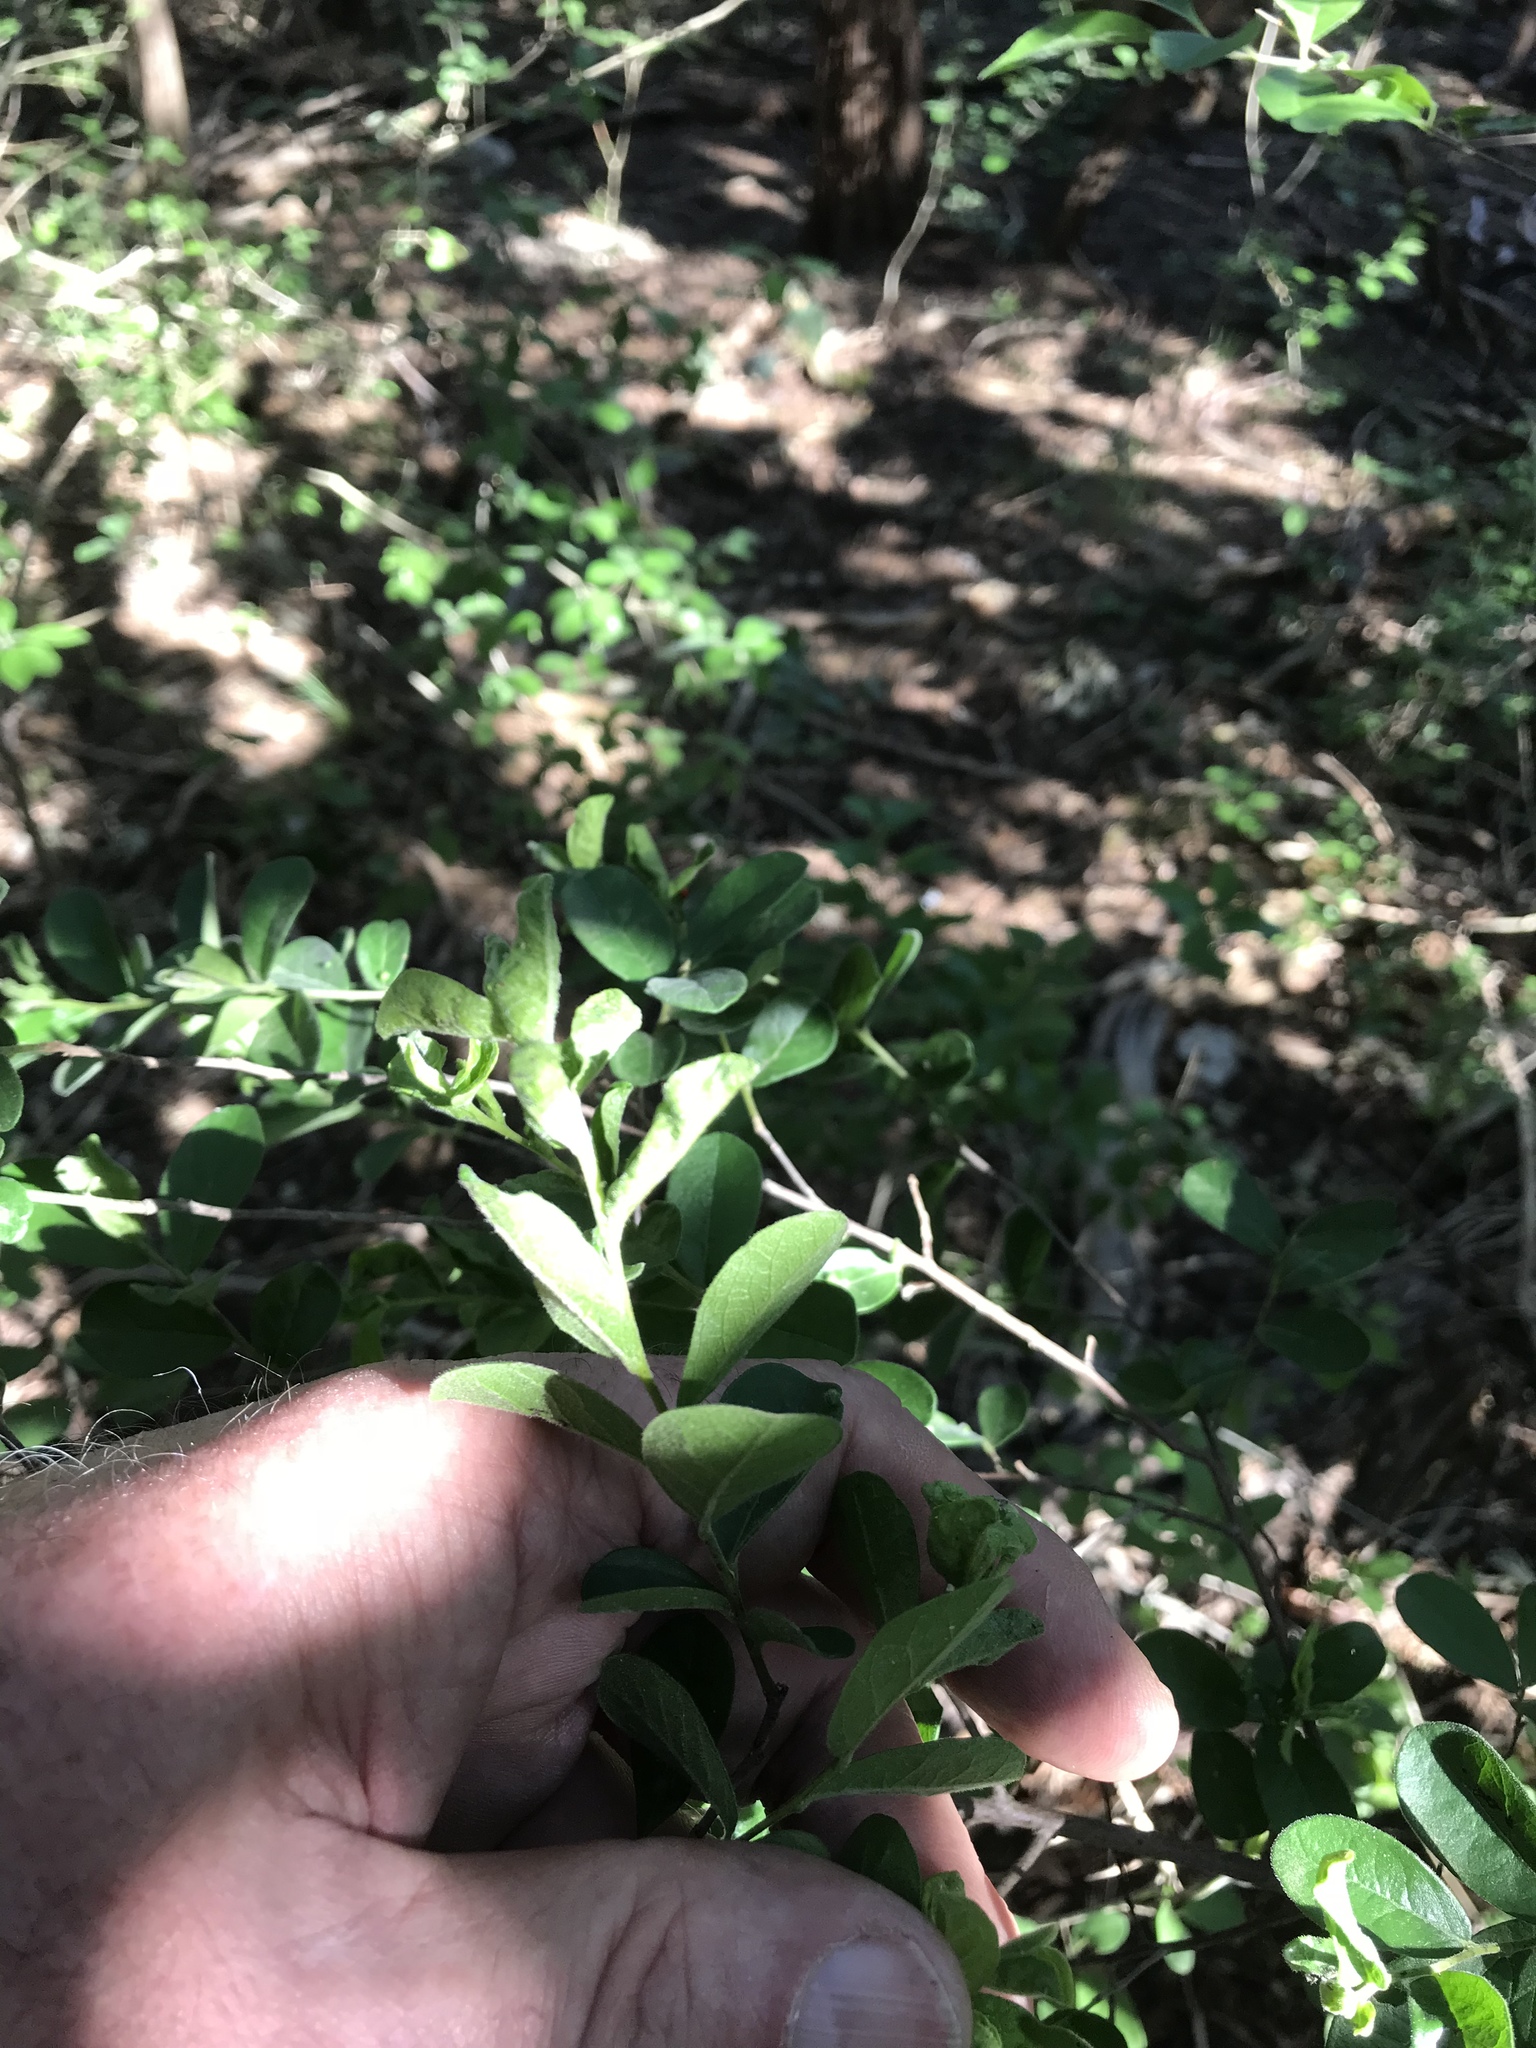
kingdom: Plantae
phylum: Tracheophyta
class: Magnoliopsida
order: Ericales
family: Ebenaceae
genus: Diospyros
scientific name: Diospyros texana
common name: Texas persimmon
